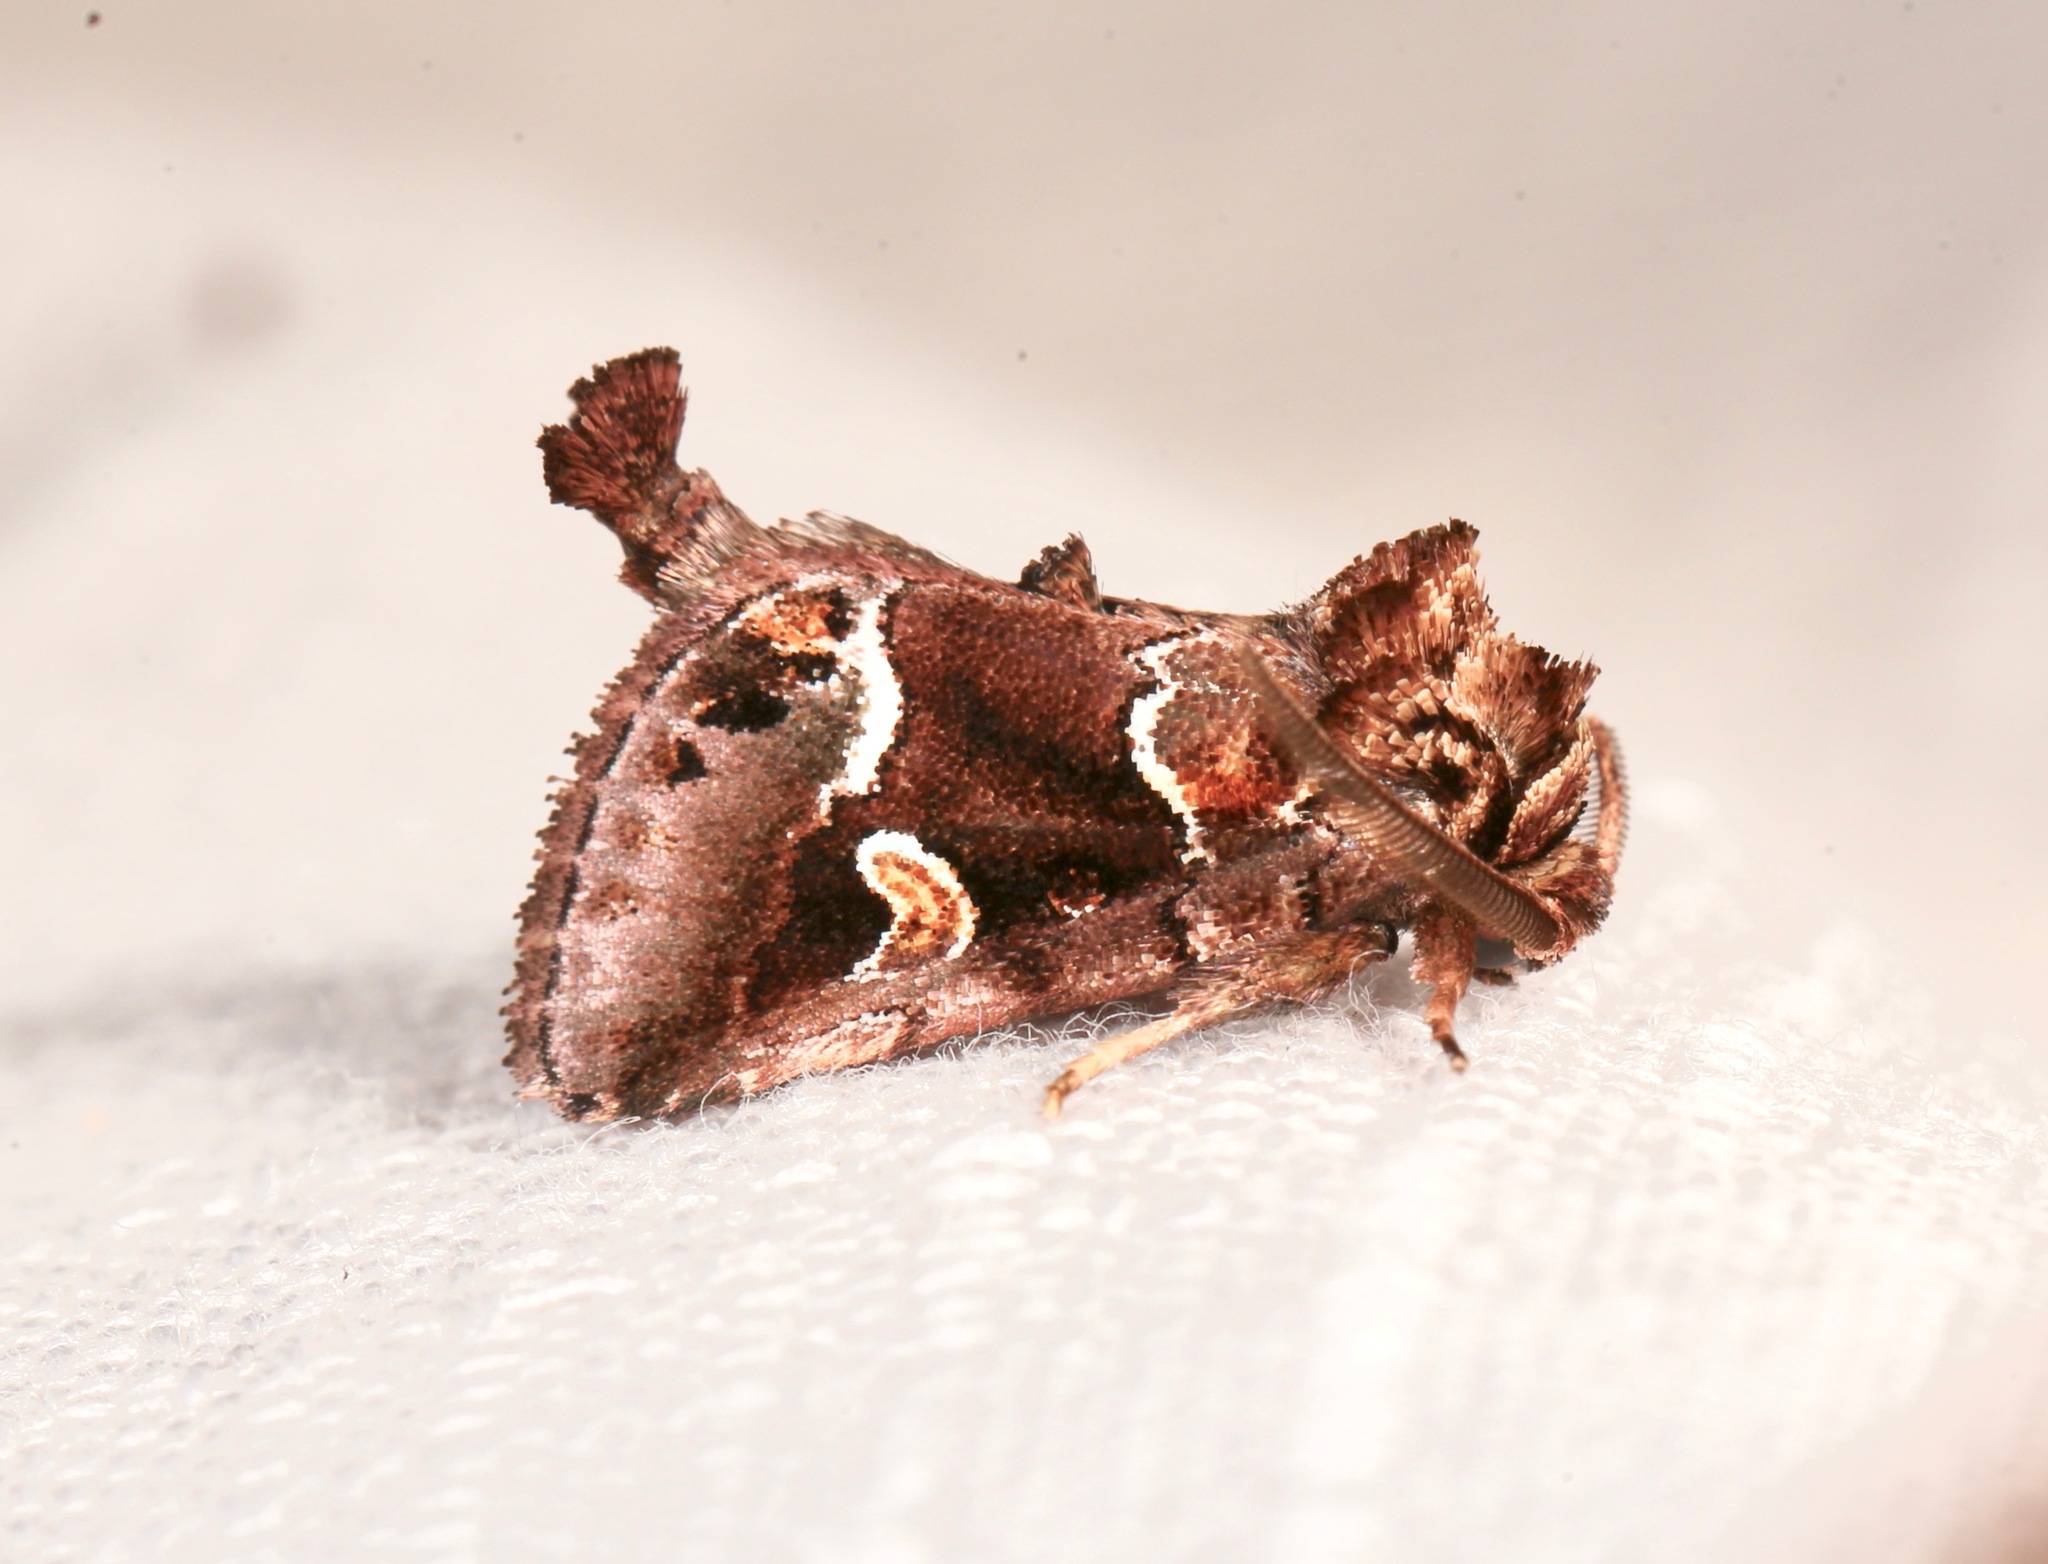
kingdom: Animalia
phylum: Arthropoda
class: Insecta
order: Lepidoptera
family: Noctuidae
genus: Acherdoa
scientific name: Acherdoa ferraria
